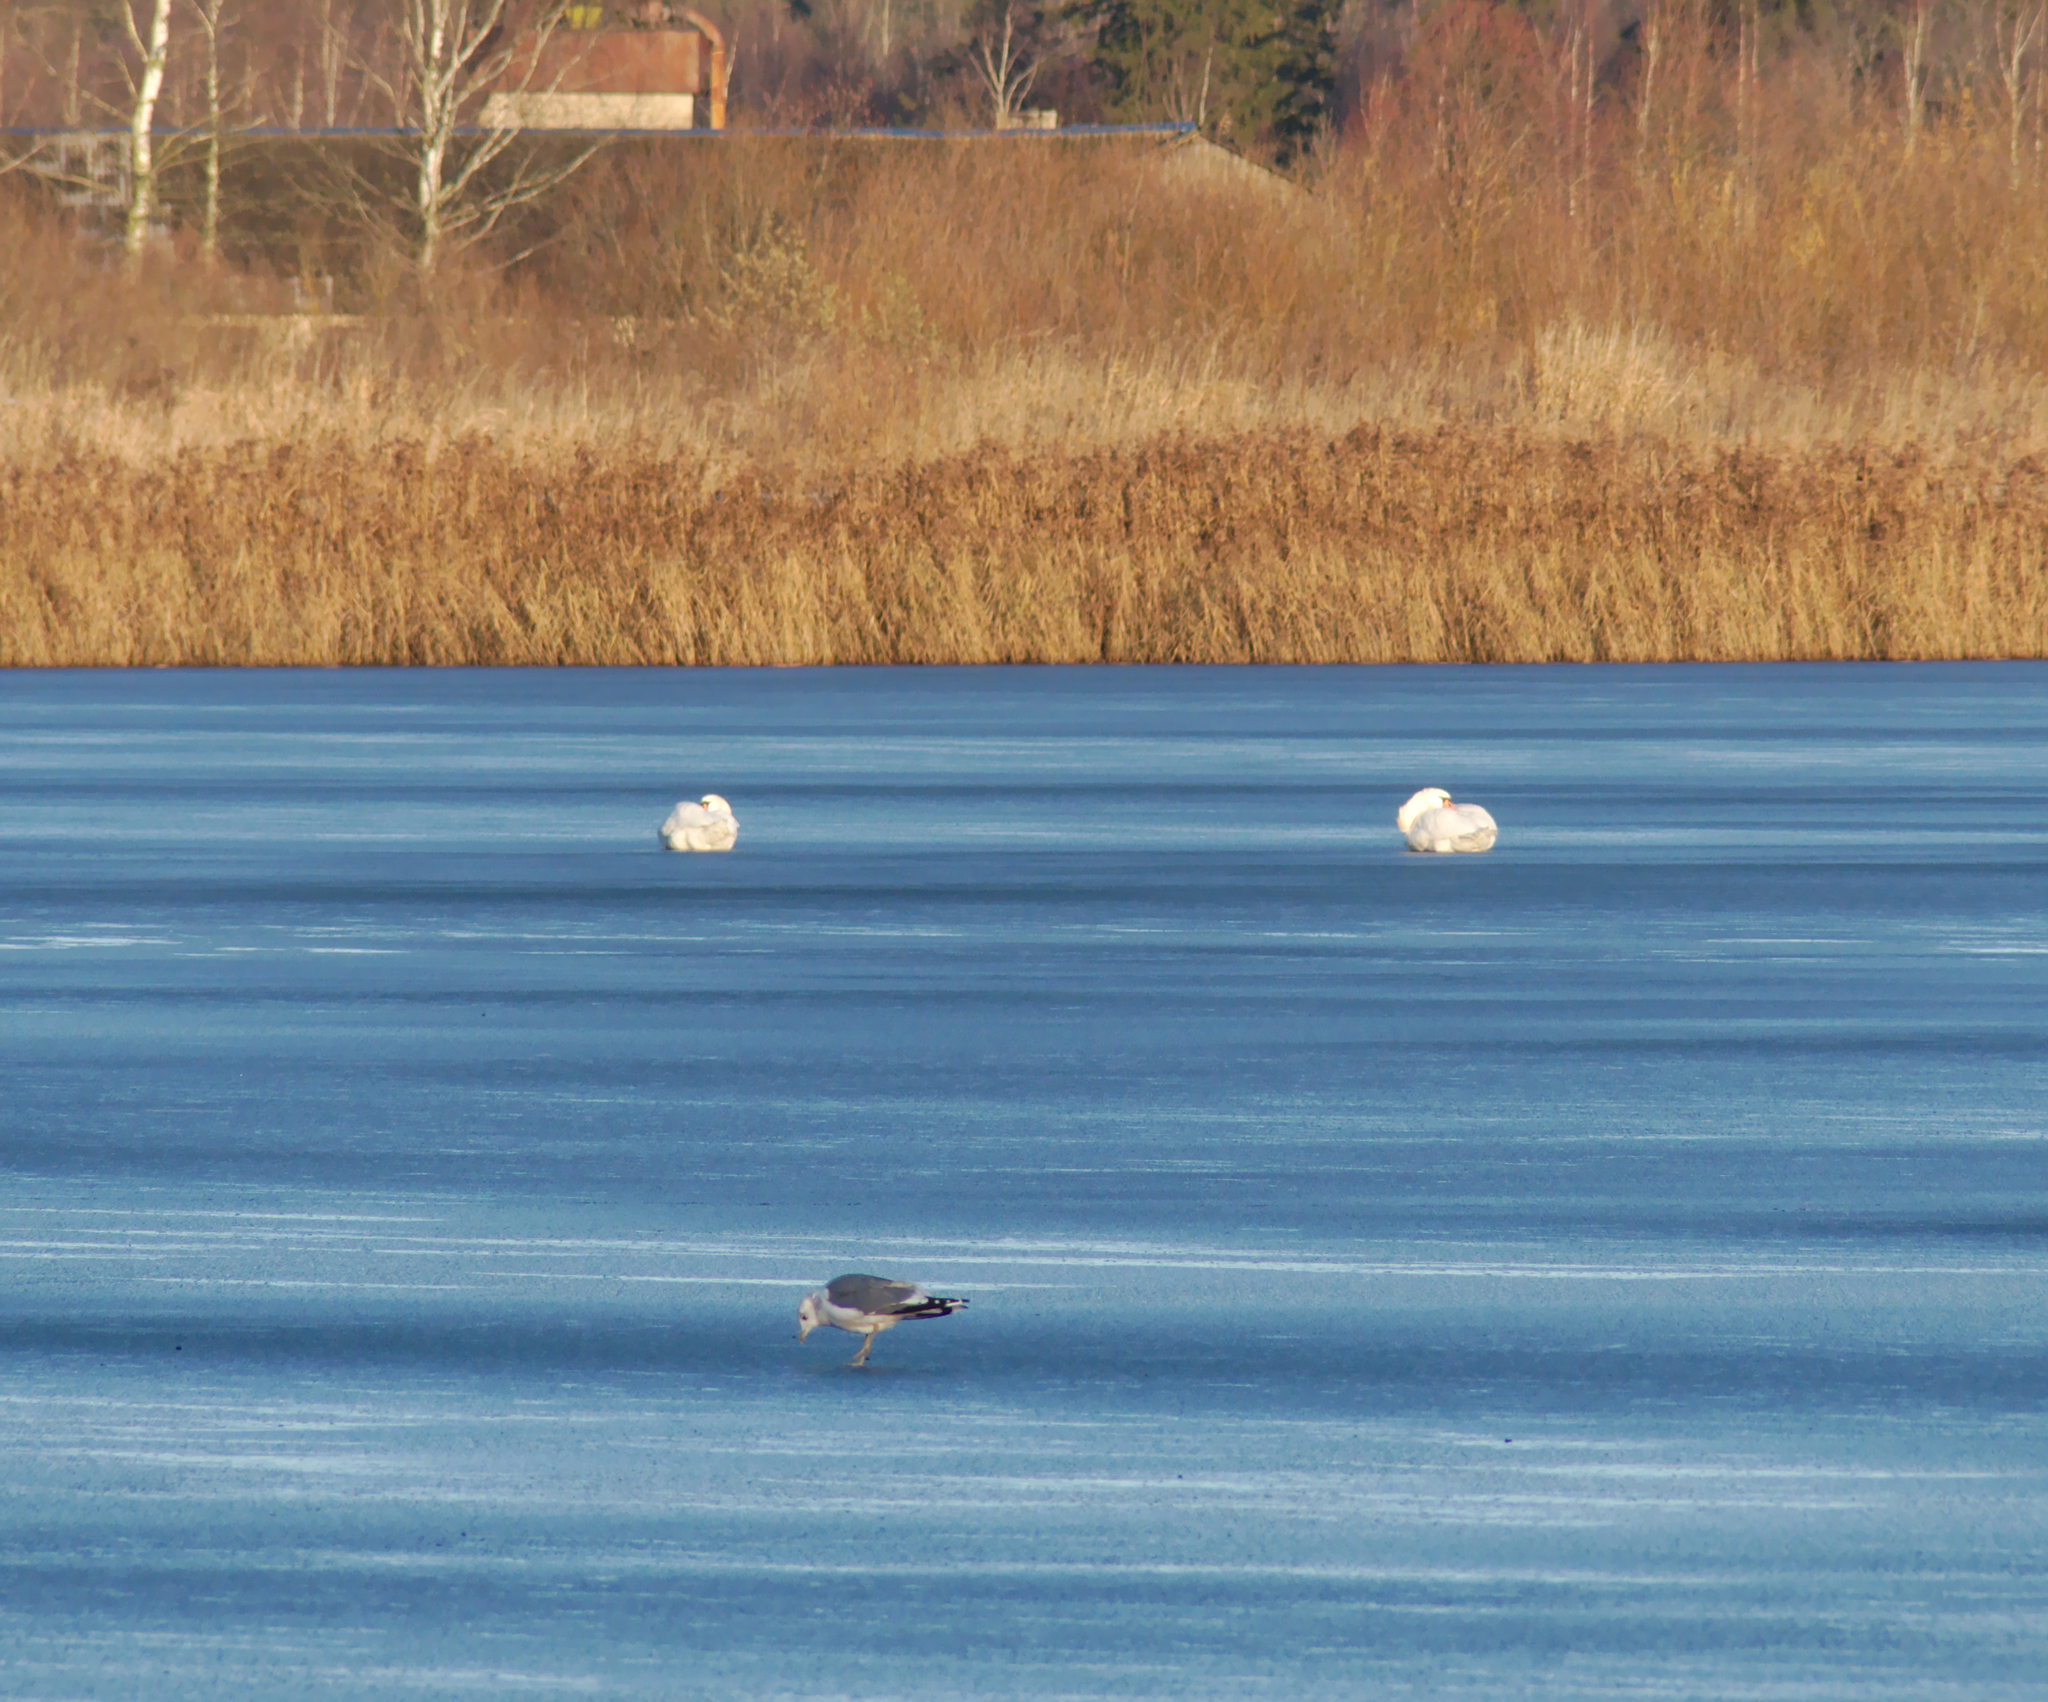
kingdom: Animalia
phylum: Chordata
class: Aves
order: Anseriformes
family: Anatidae
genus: Cygnus
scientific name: Cygnus olor
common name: Mute swan
